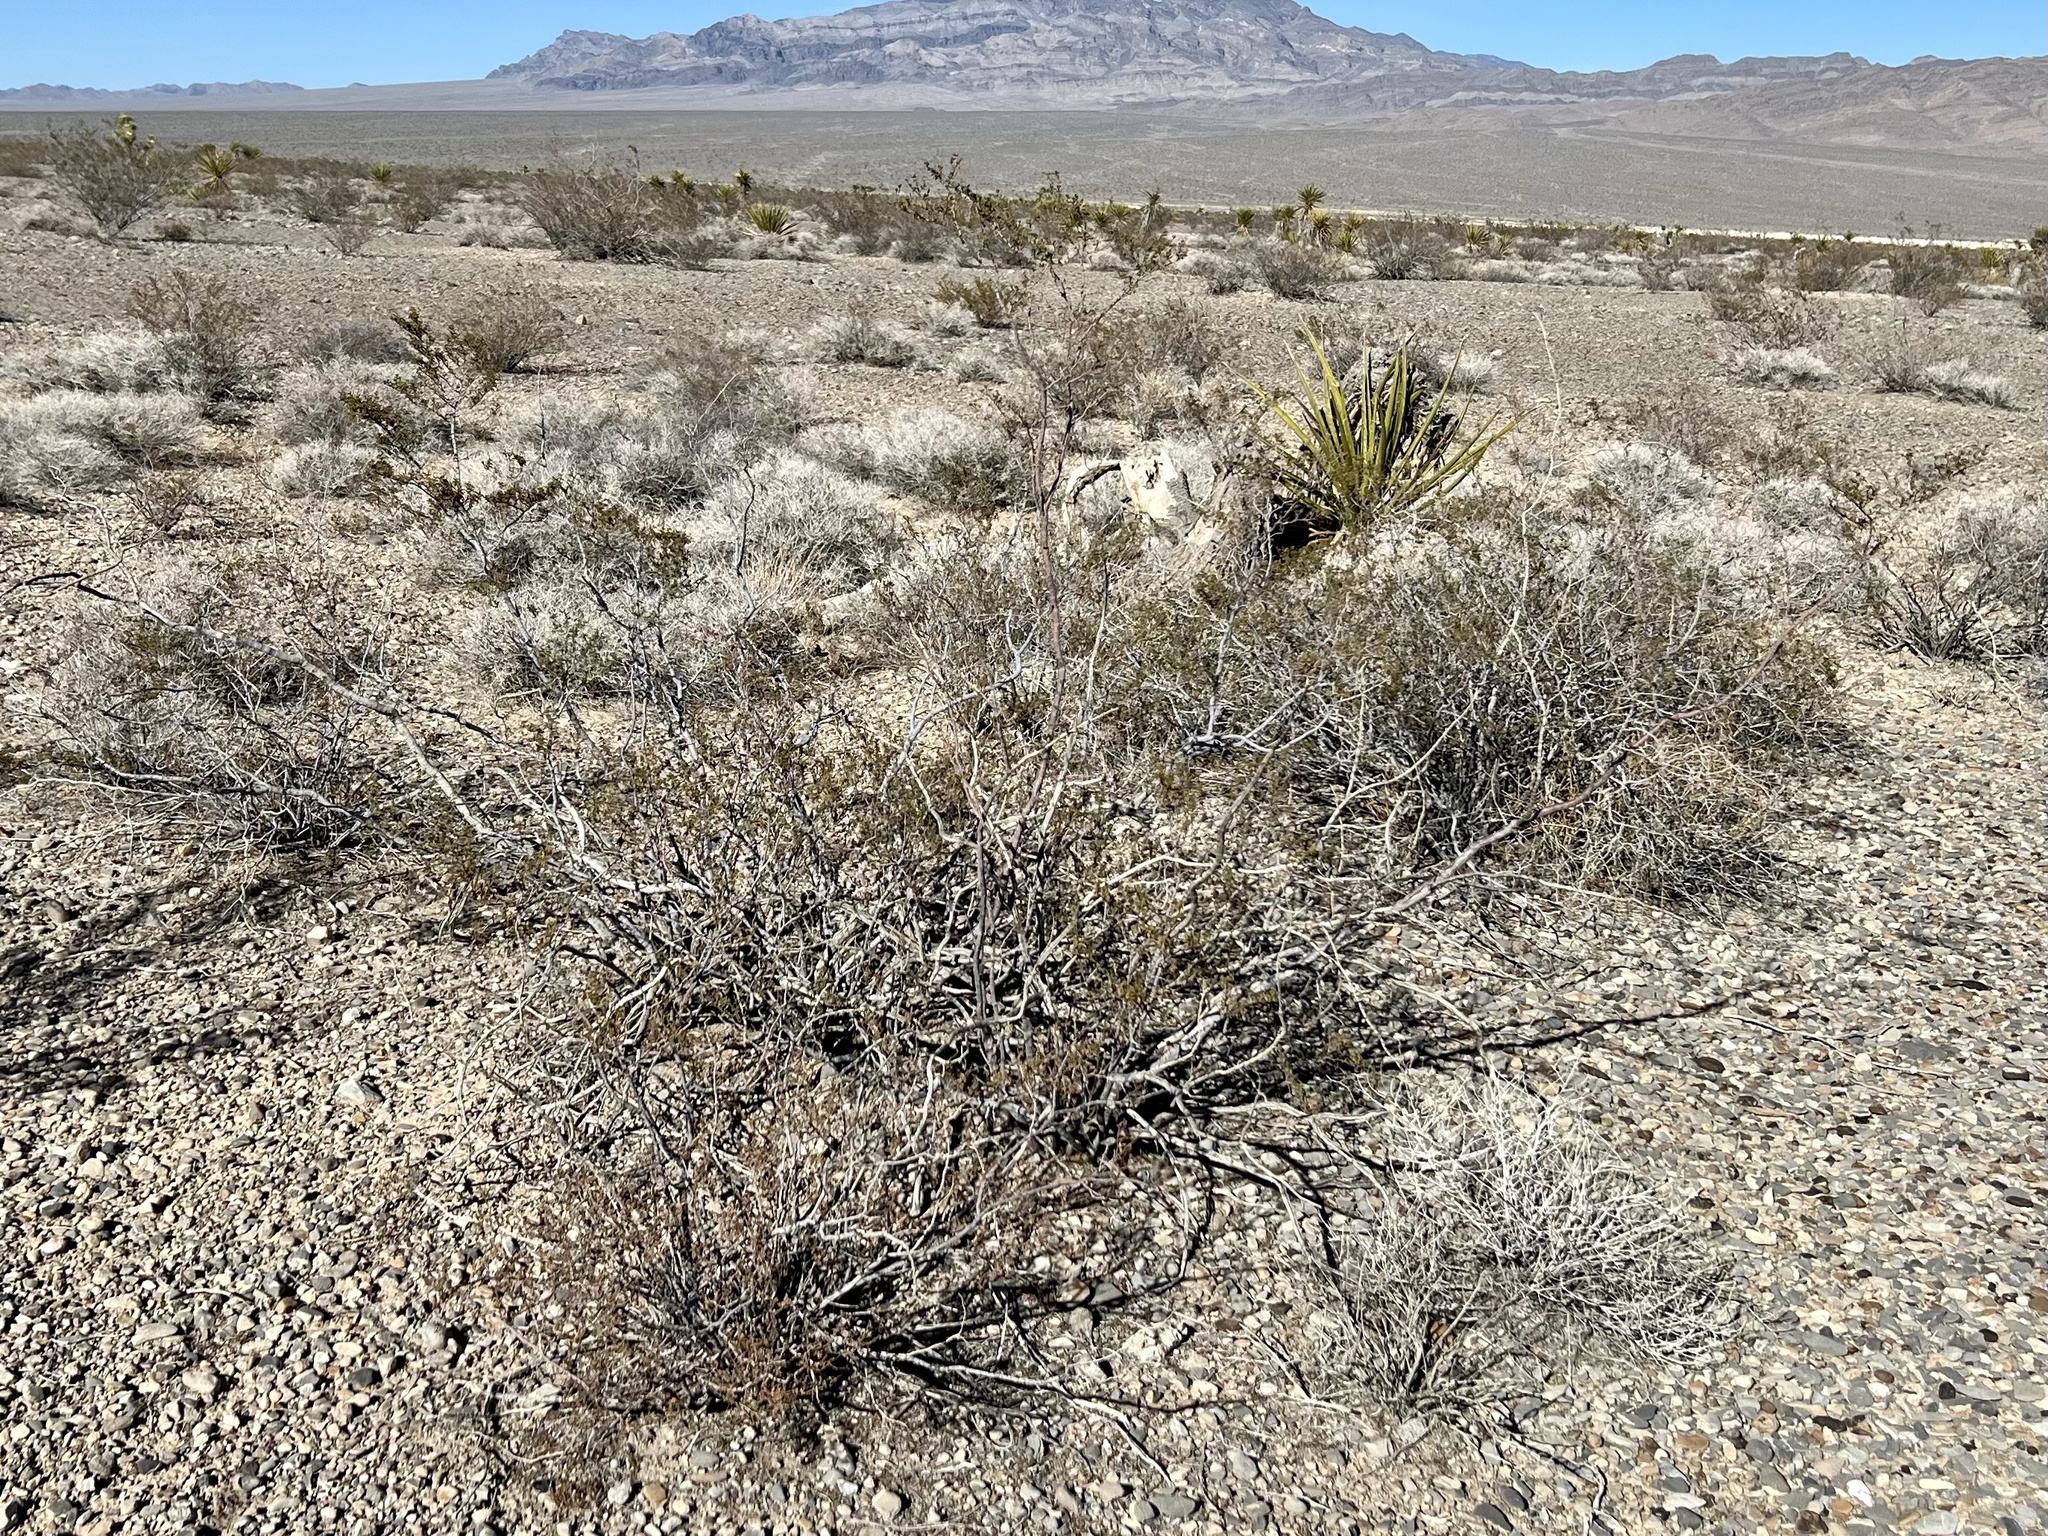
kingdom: Plantae
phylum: Tracheophyta
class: Magnoliopsida
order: Zygophyllales
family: Zygophyllaceae
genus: Larrea
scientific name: Larrea tridentata
